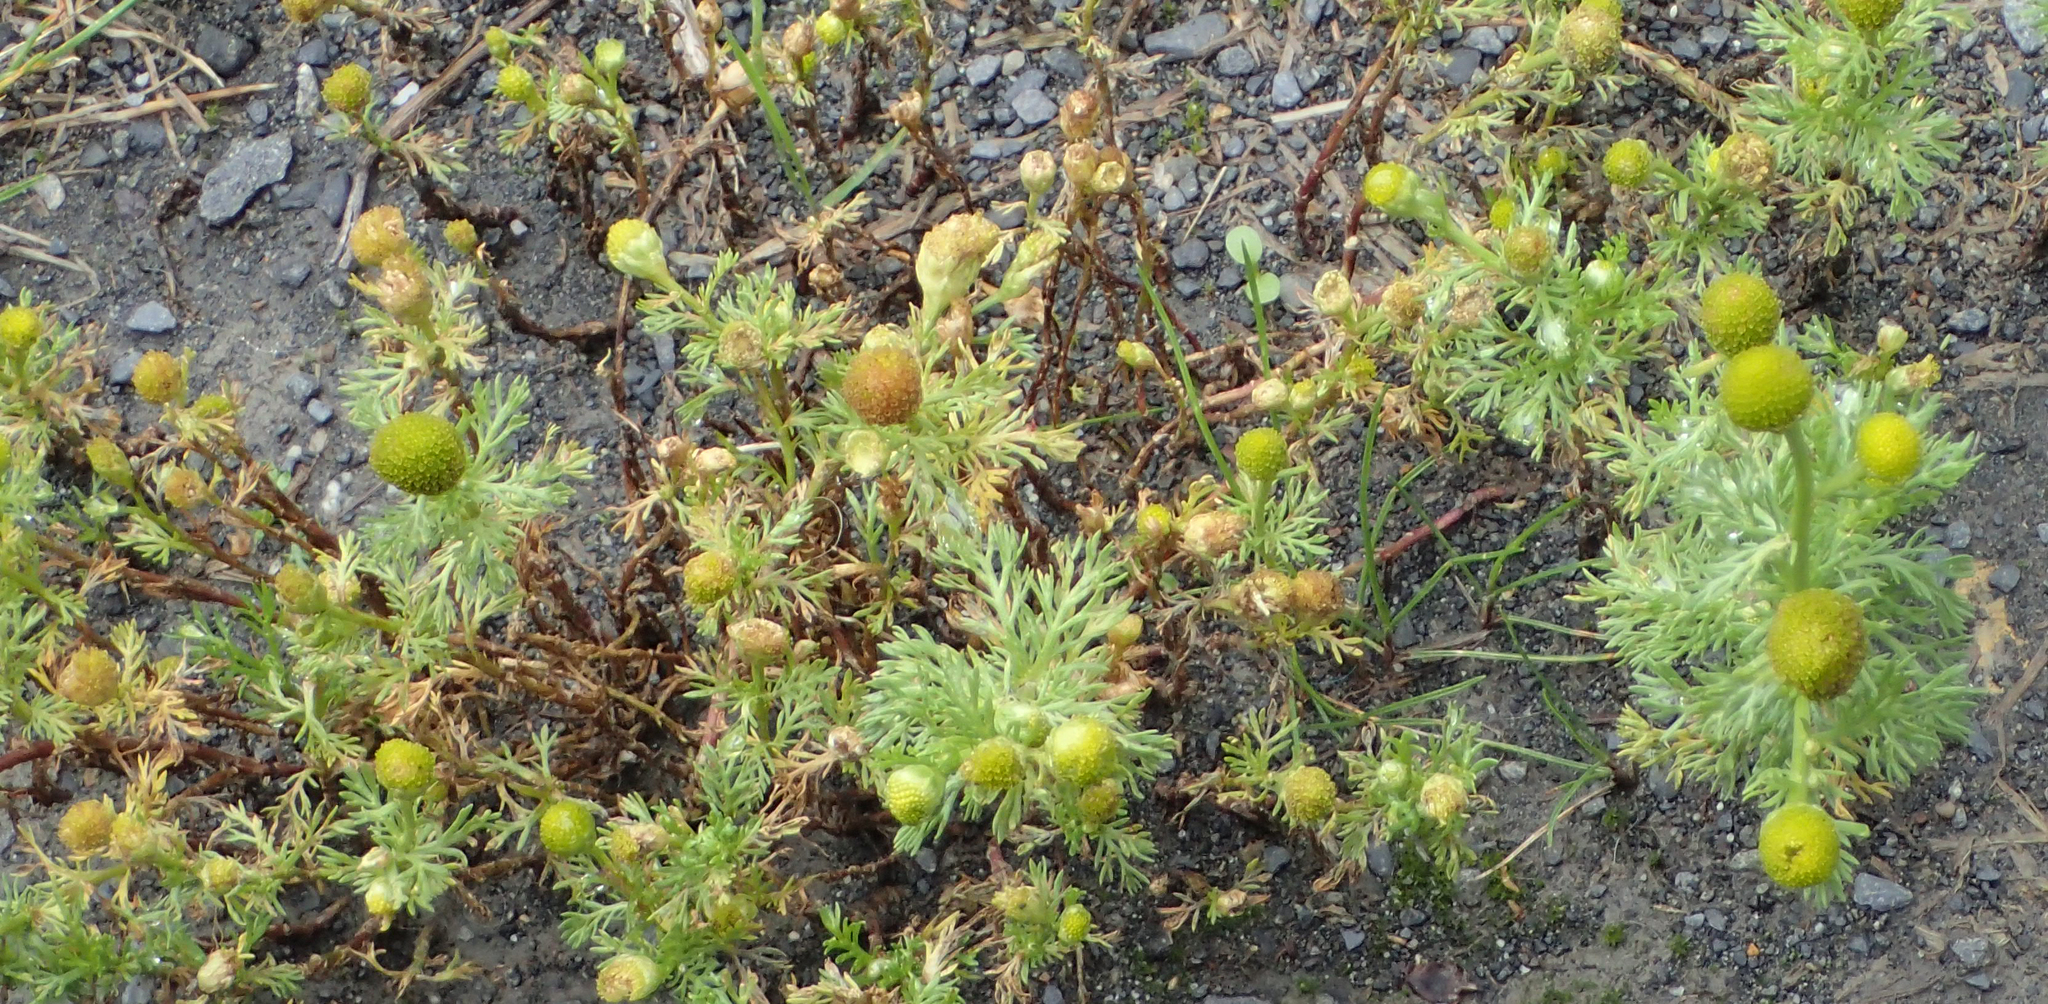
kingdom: Plantae
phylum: Tracheophyta
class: Magnoliopsida
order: Asterales
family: Asteraceae
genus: Matricaria
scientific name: Matricaria discoidea
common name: Disc mayweed
